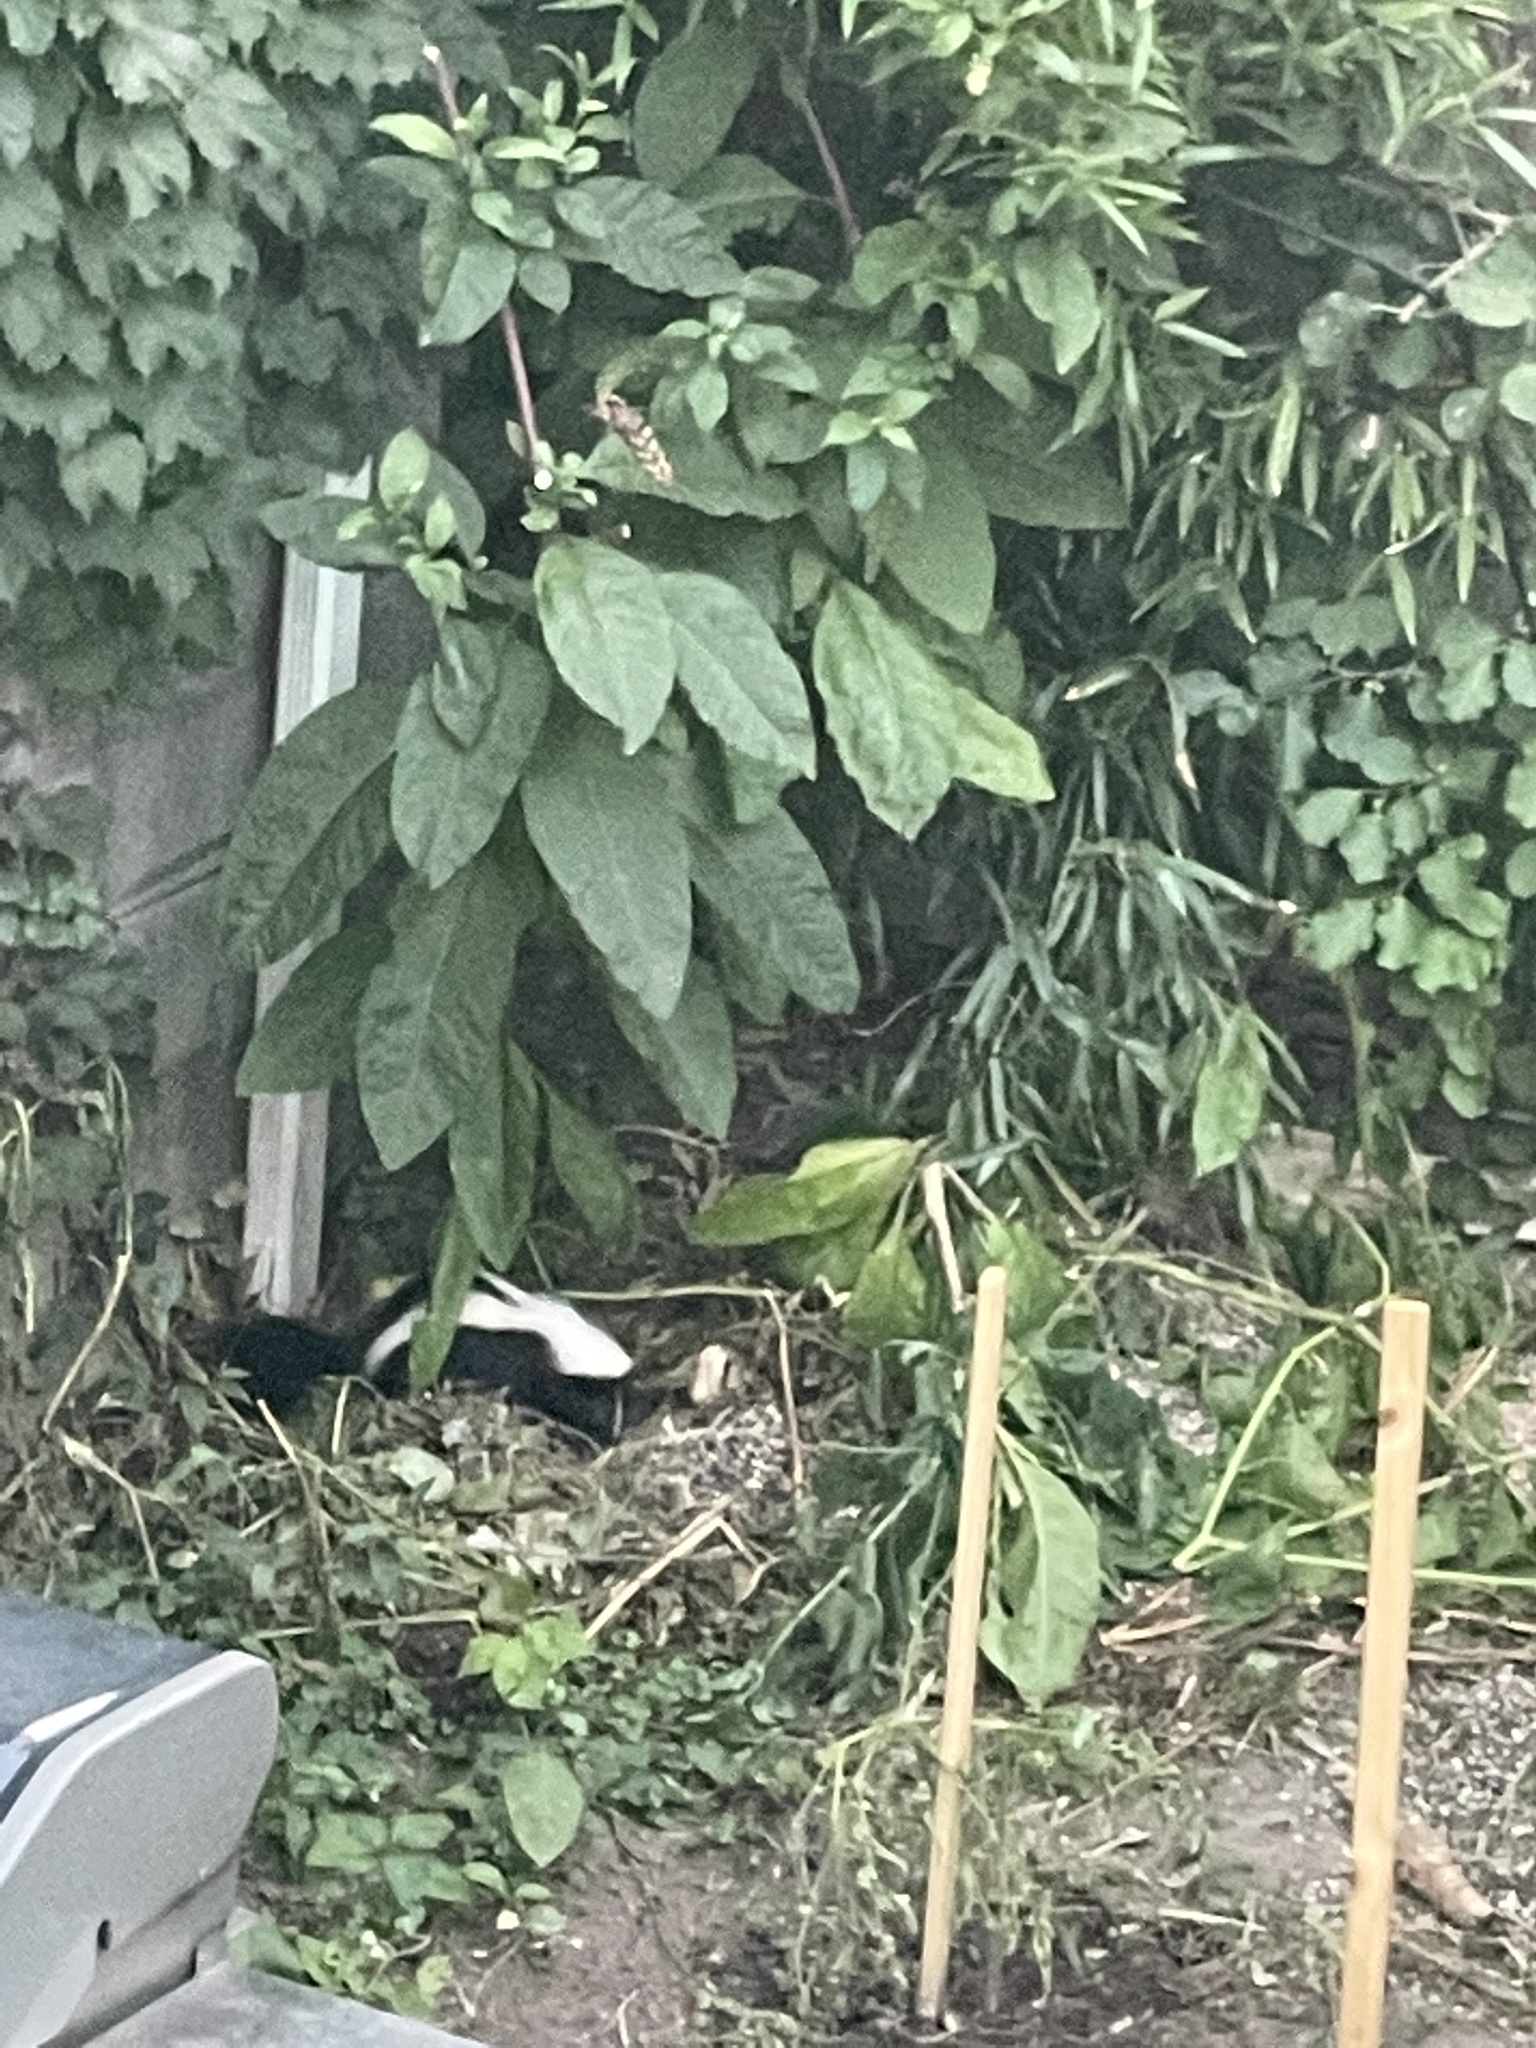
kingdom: Animalia
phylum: Chordata
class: Mammalia
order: Carnivora
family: Mephitidae
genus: Mephitis
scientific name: Mephitis mephitis
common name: Striped skunk
